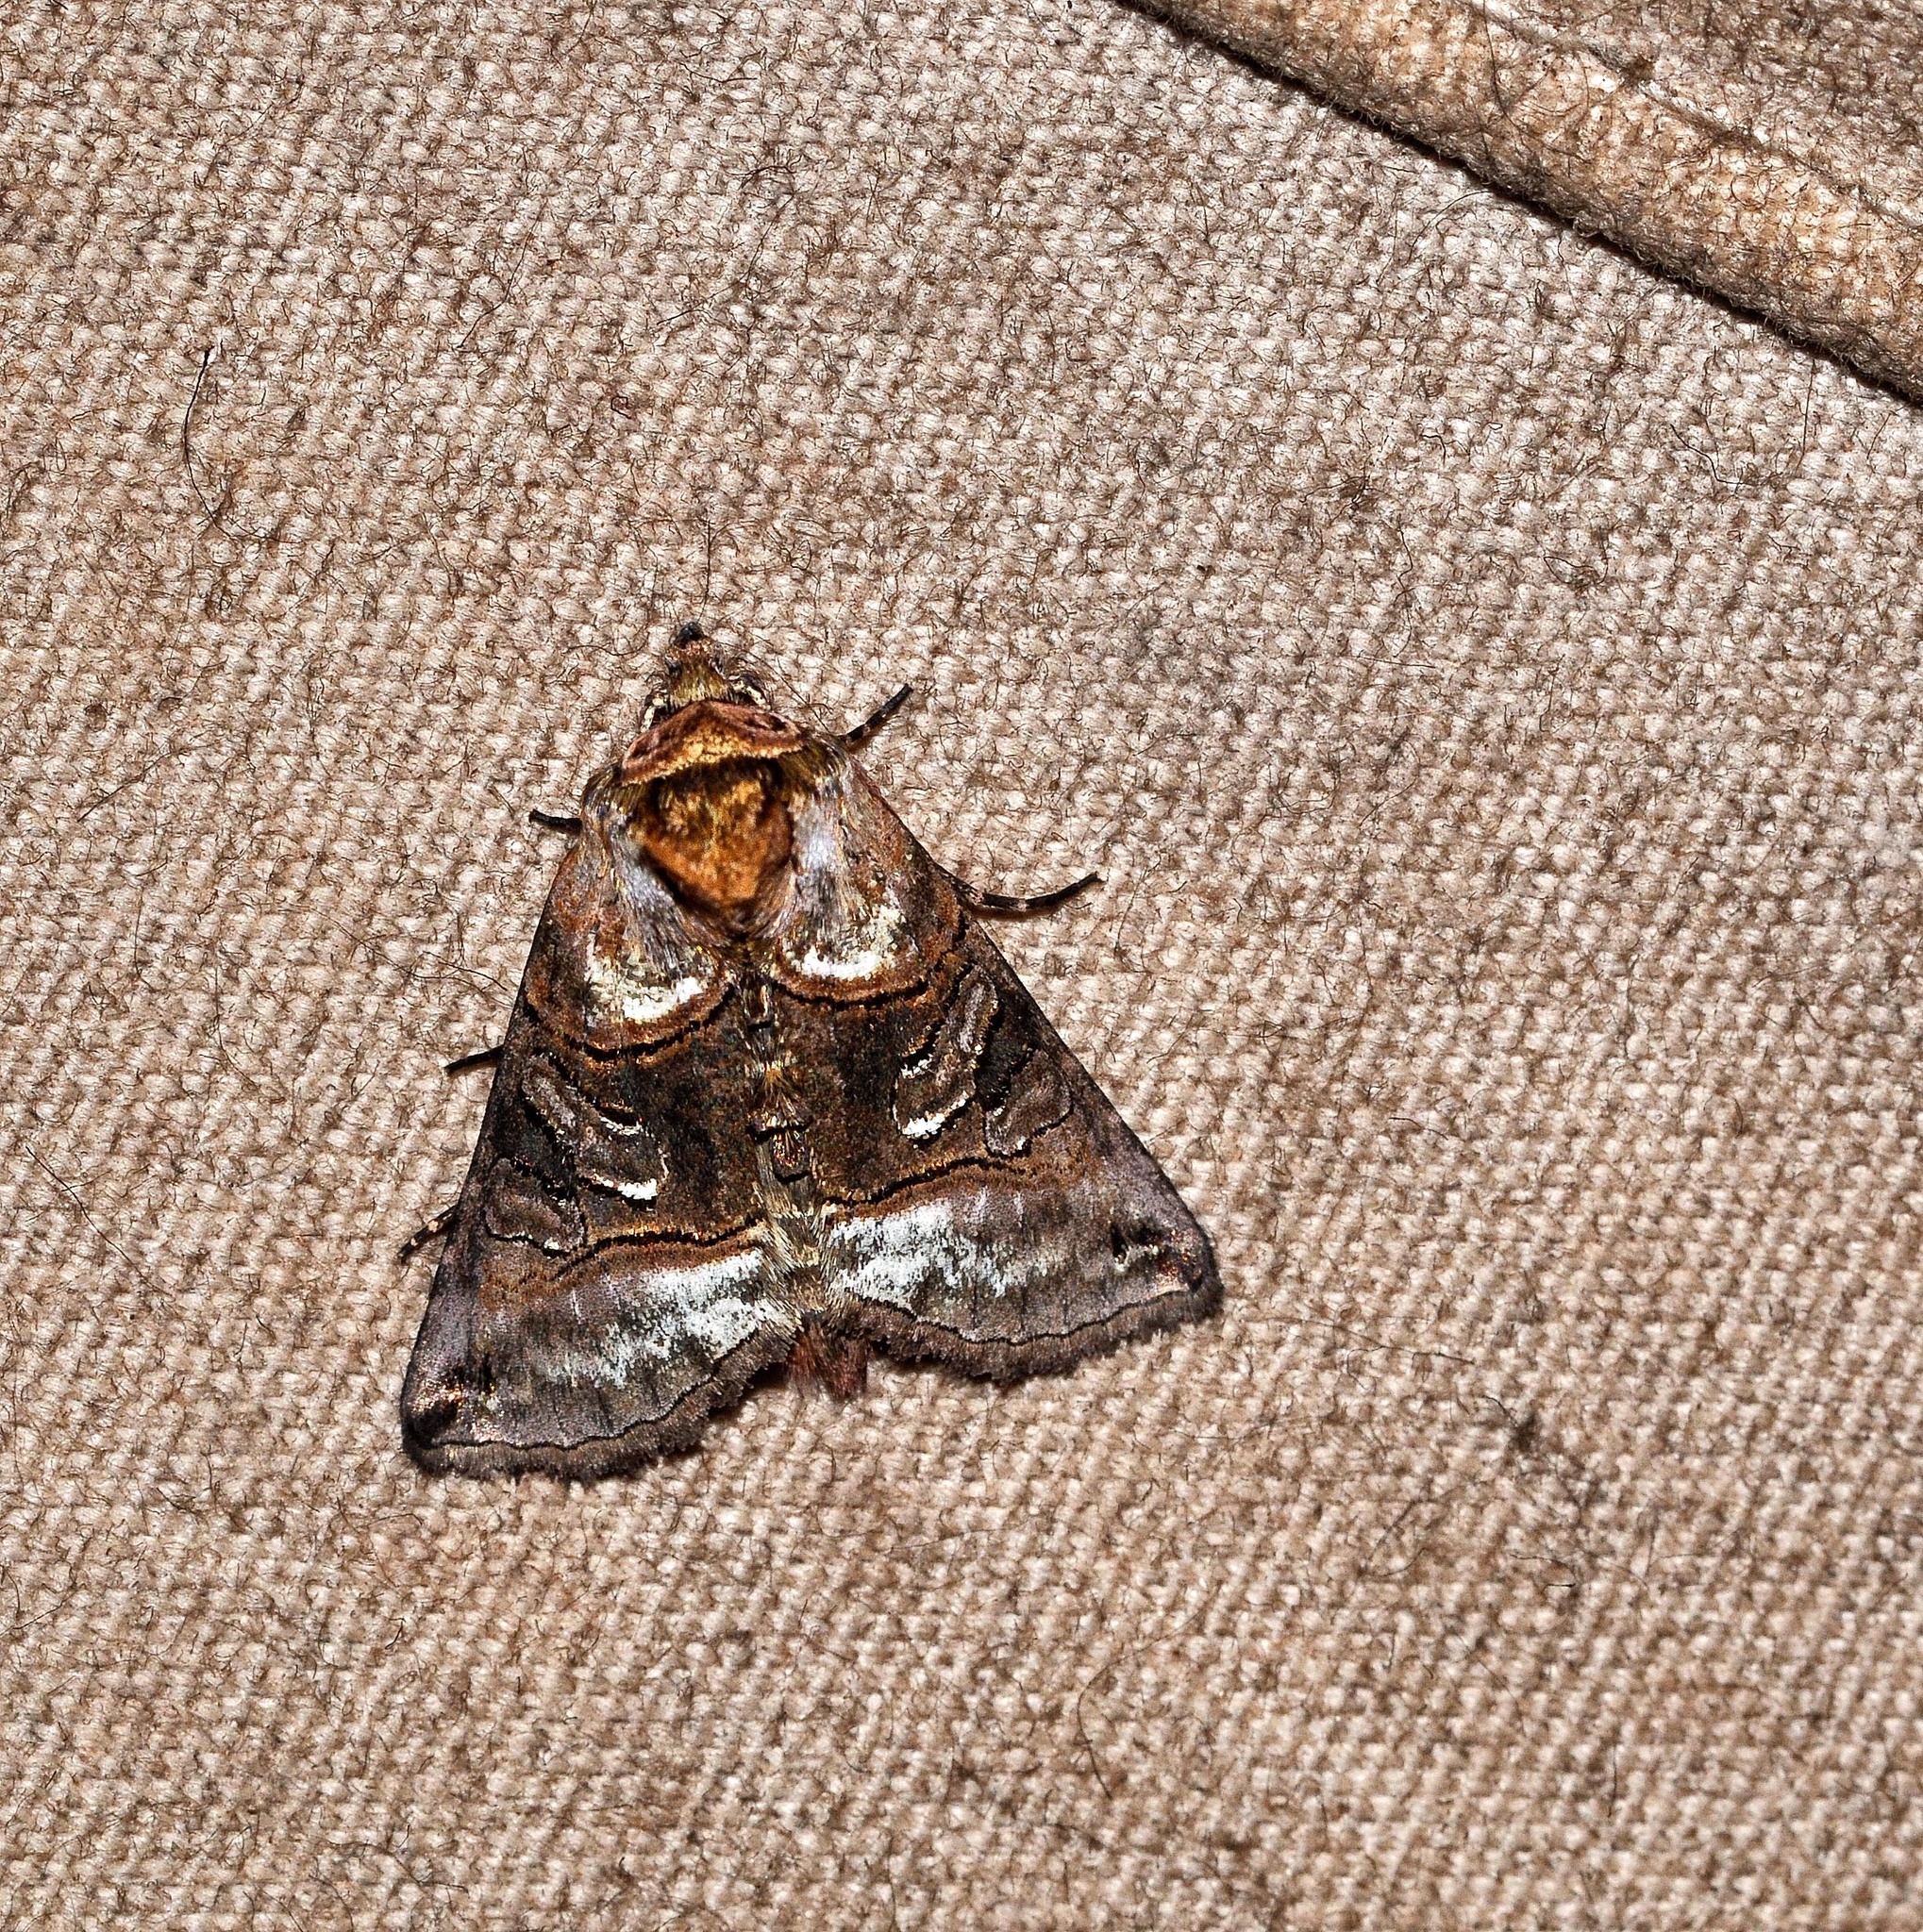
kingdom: Animalia
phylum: Arthropoda
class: Insecta
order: Lepidoptera
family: Noctuidae
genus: Abrostola
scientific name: Abrostola tripartita
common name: Spectacle
